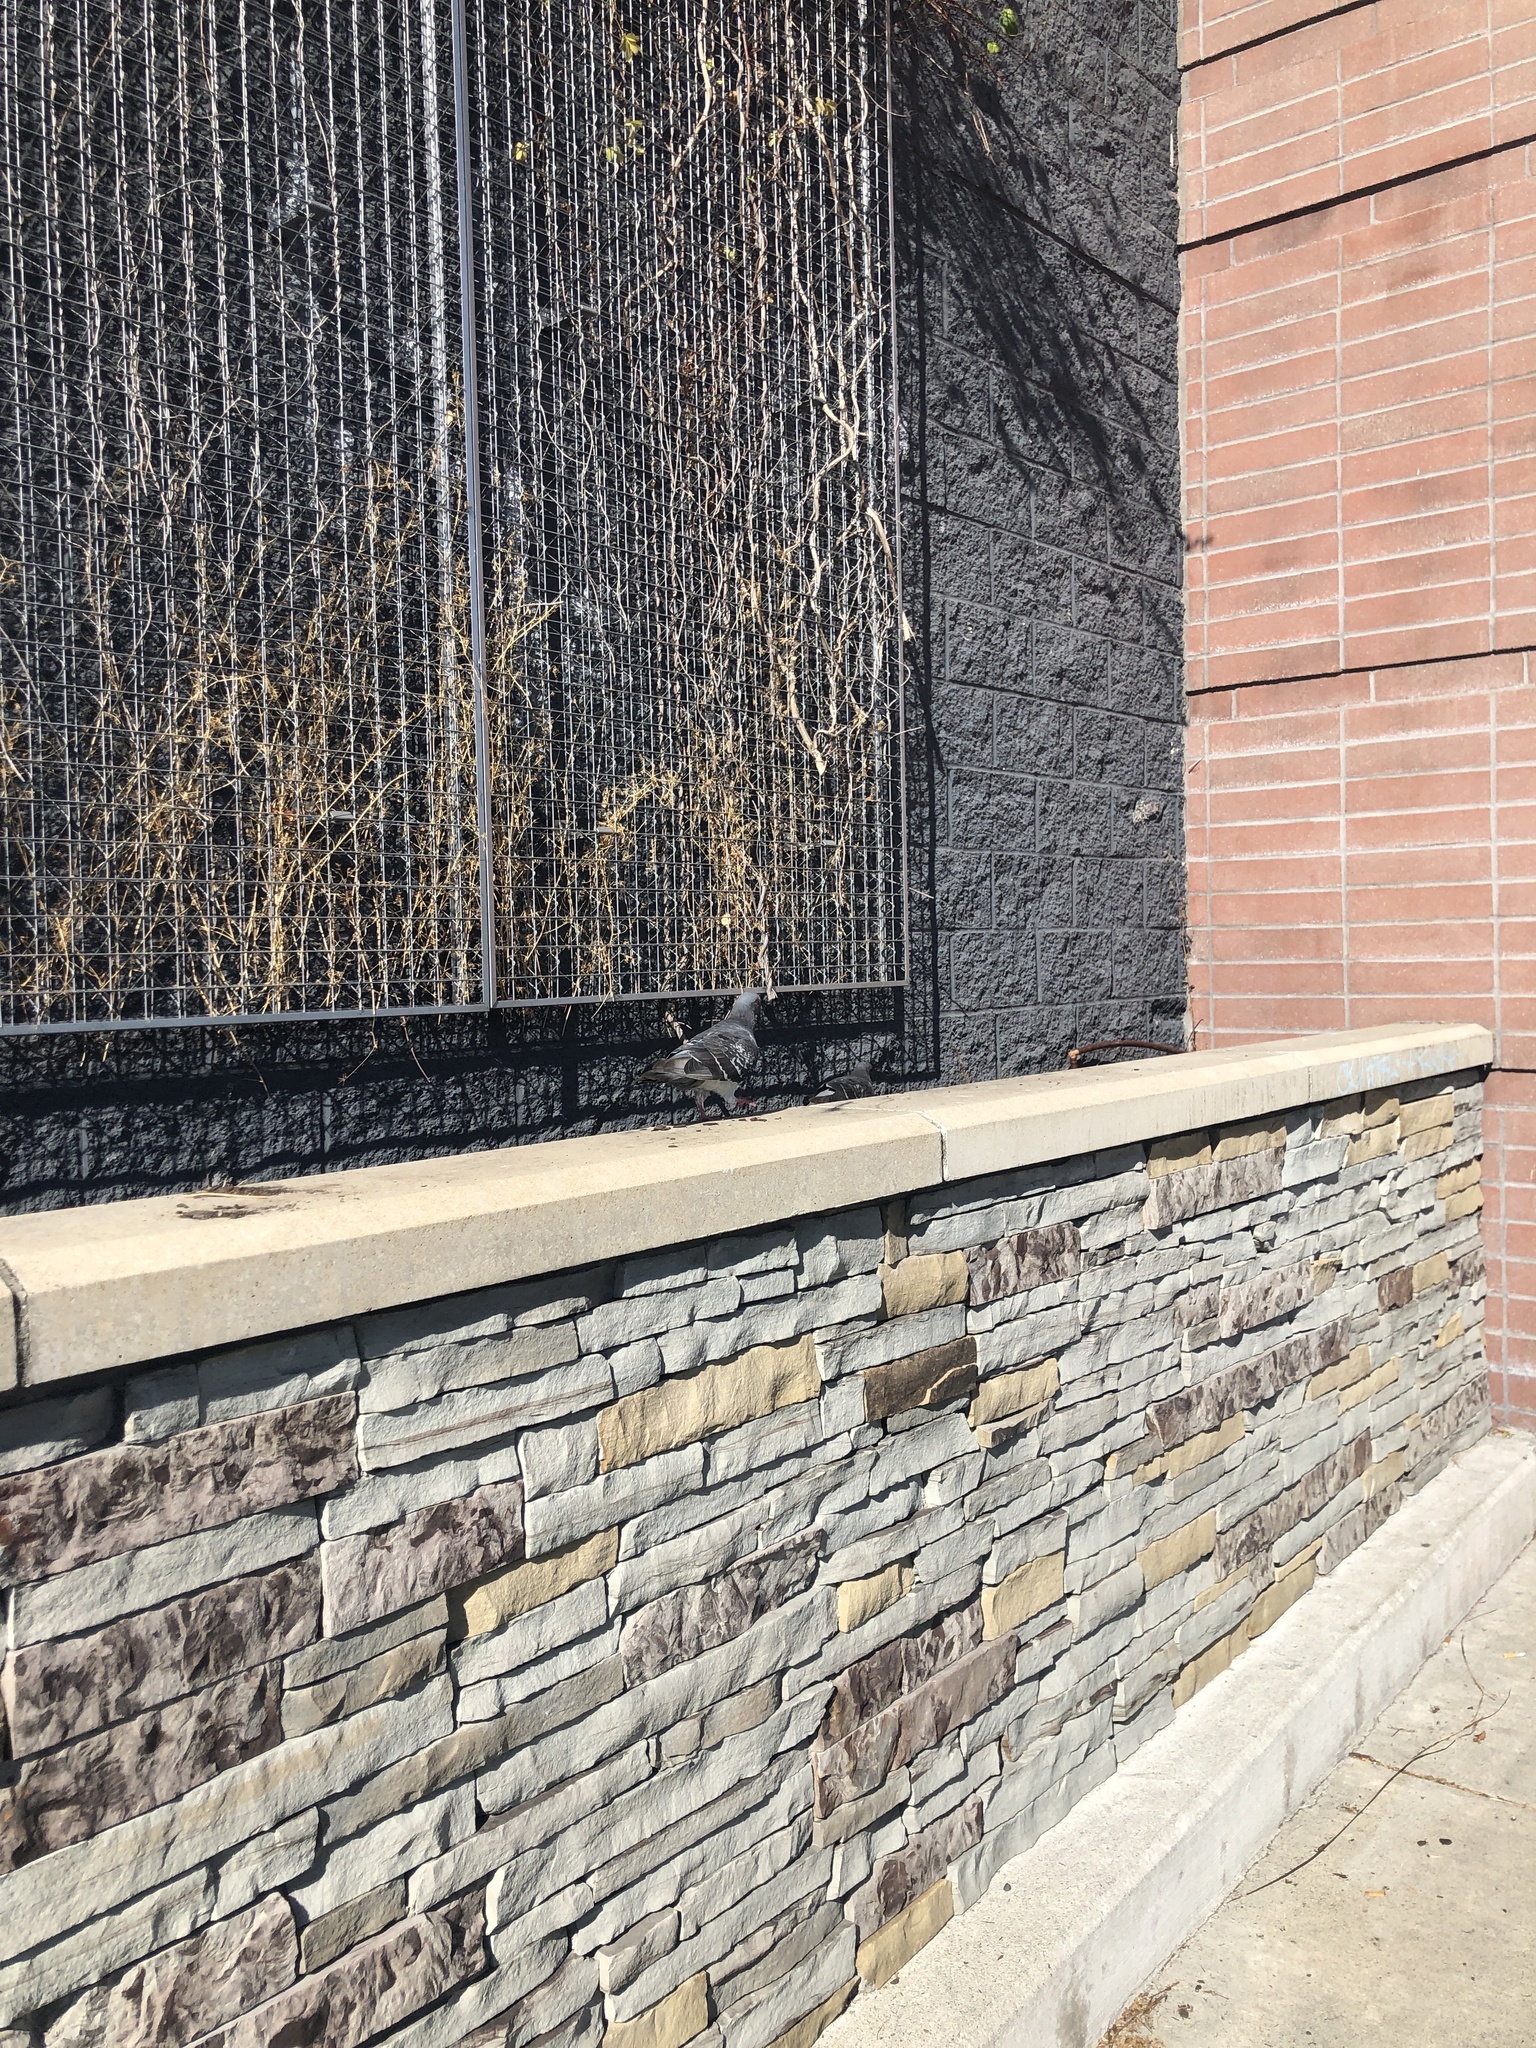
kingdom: Animalia
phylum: Chordata
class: Aves
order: Columbiformes
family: Columbidae
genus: Columba
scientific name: Columba livia
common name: Rock pigeon
